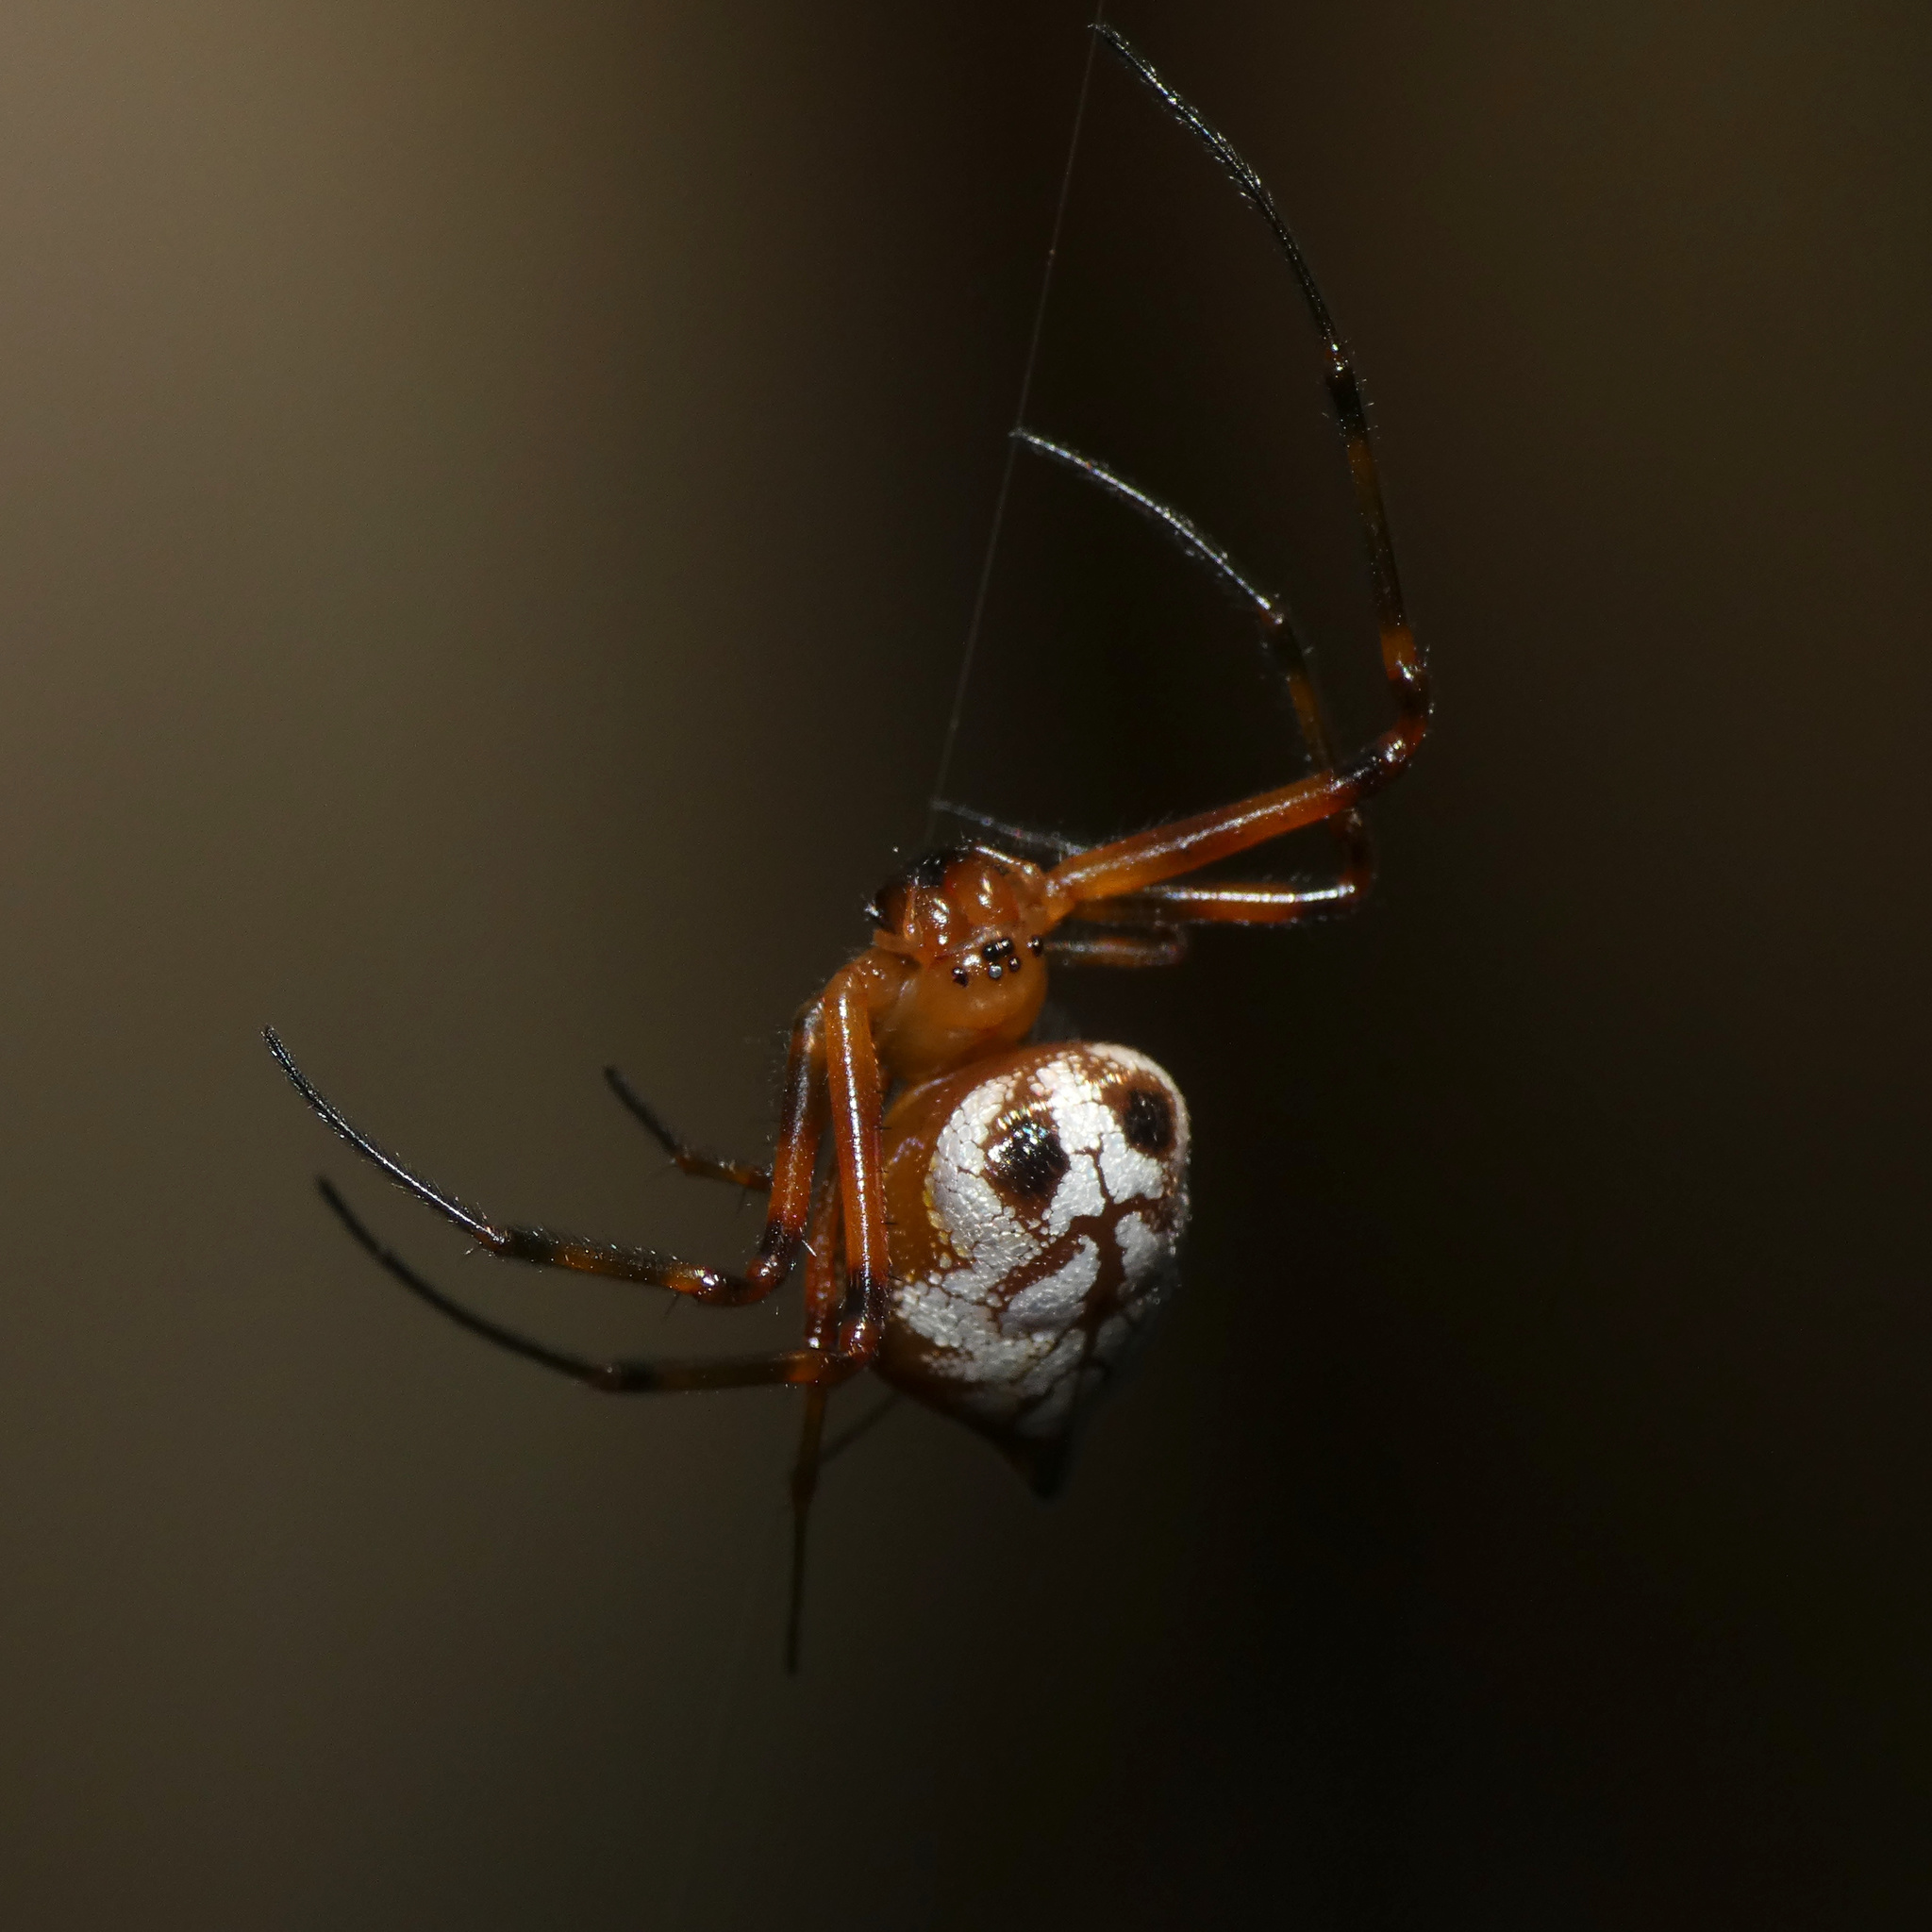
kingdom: Animalia
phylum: Arthropoda
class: Arachnida
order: Araneae
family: Tetragnathidae
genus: Leucauge
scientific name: Leucauge medjensis
